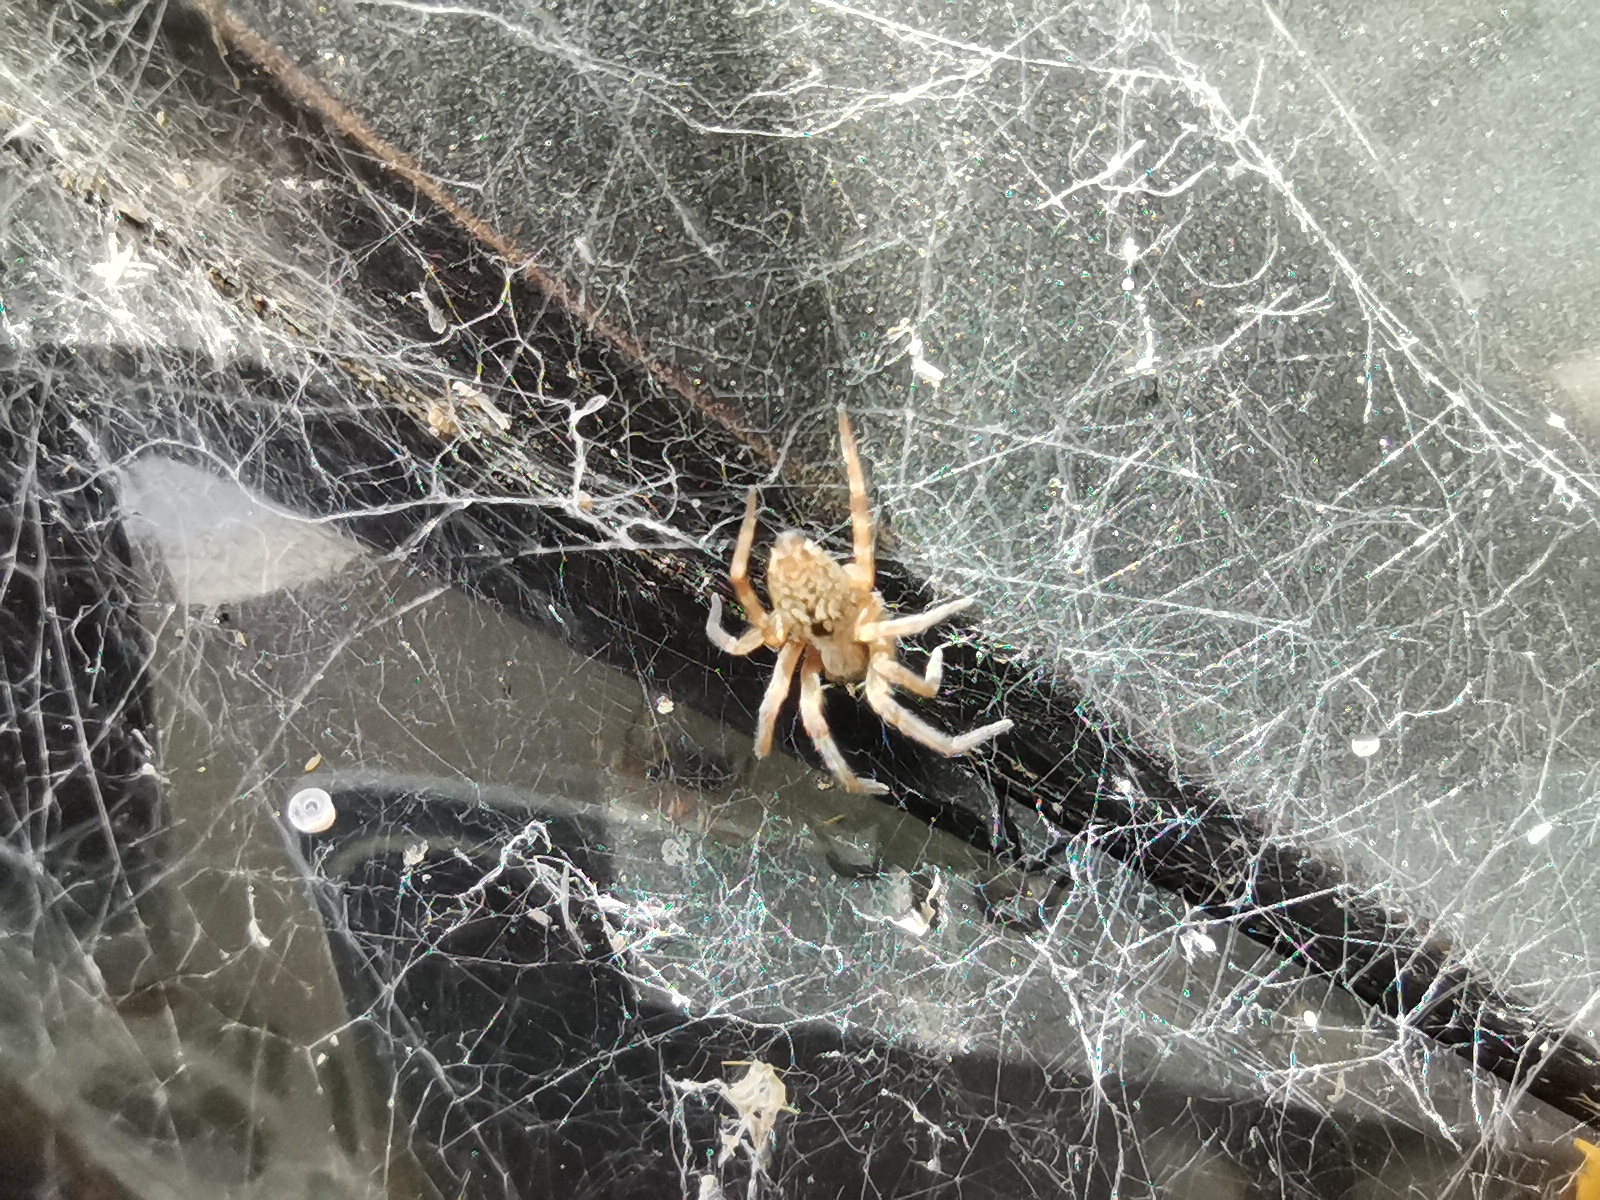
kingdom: Animalia
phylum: Arthropoda
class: Arachnida
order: Araneae
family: Desidae
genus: Badumna
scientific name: Badumna longinqua
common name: Gray house spider
